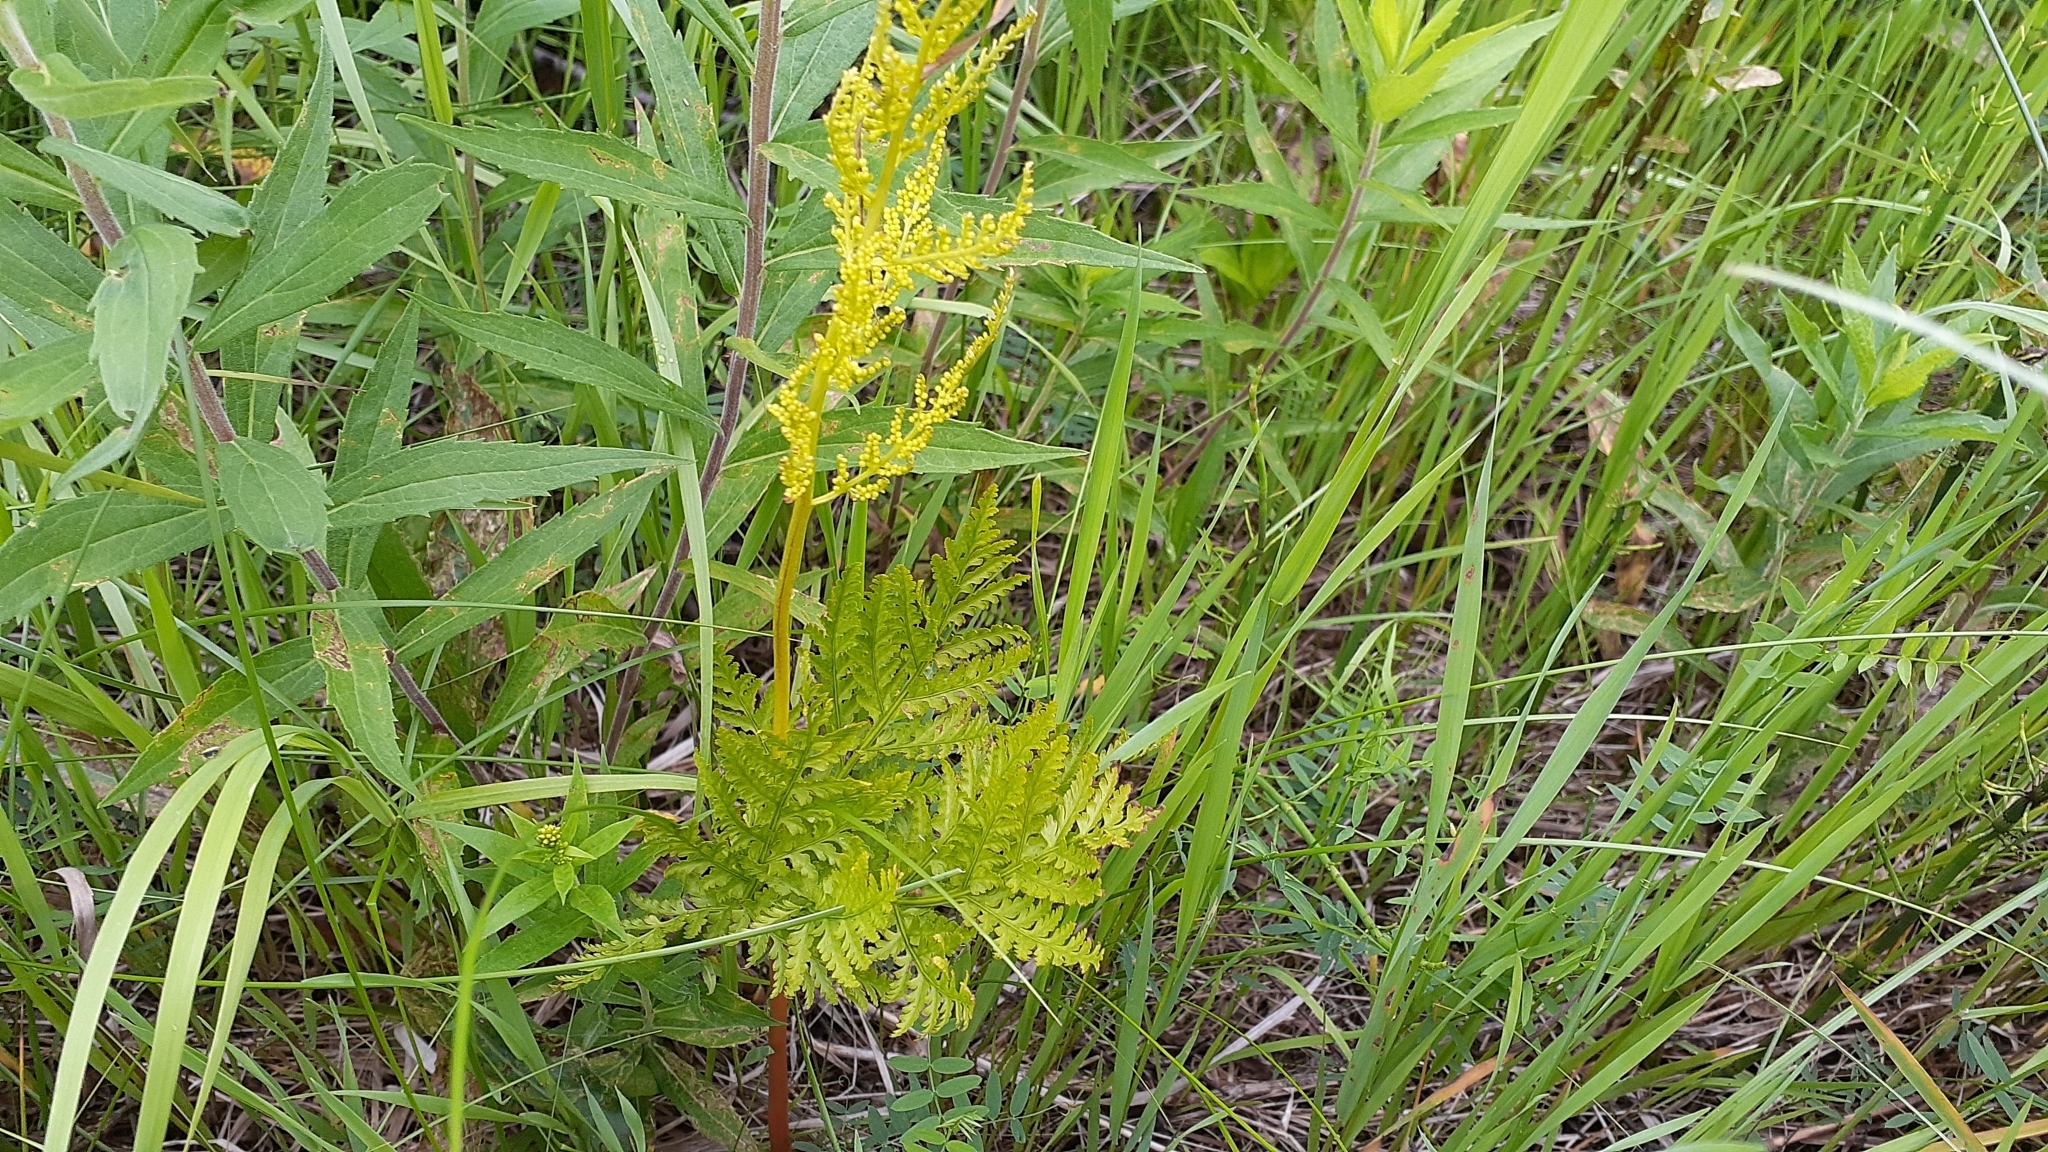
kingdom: Plantae
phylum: Tracheophyta
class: Polypodiopsida
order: Ophioglossales
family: Ophioglossaceae
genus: Botrypus
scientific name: Botrypus virginianus
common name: Common grapefern
